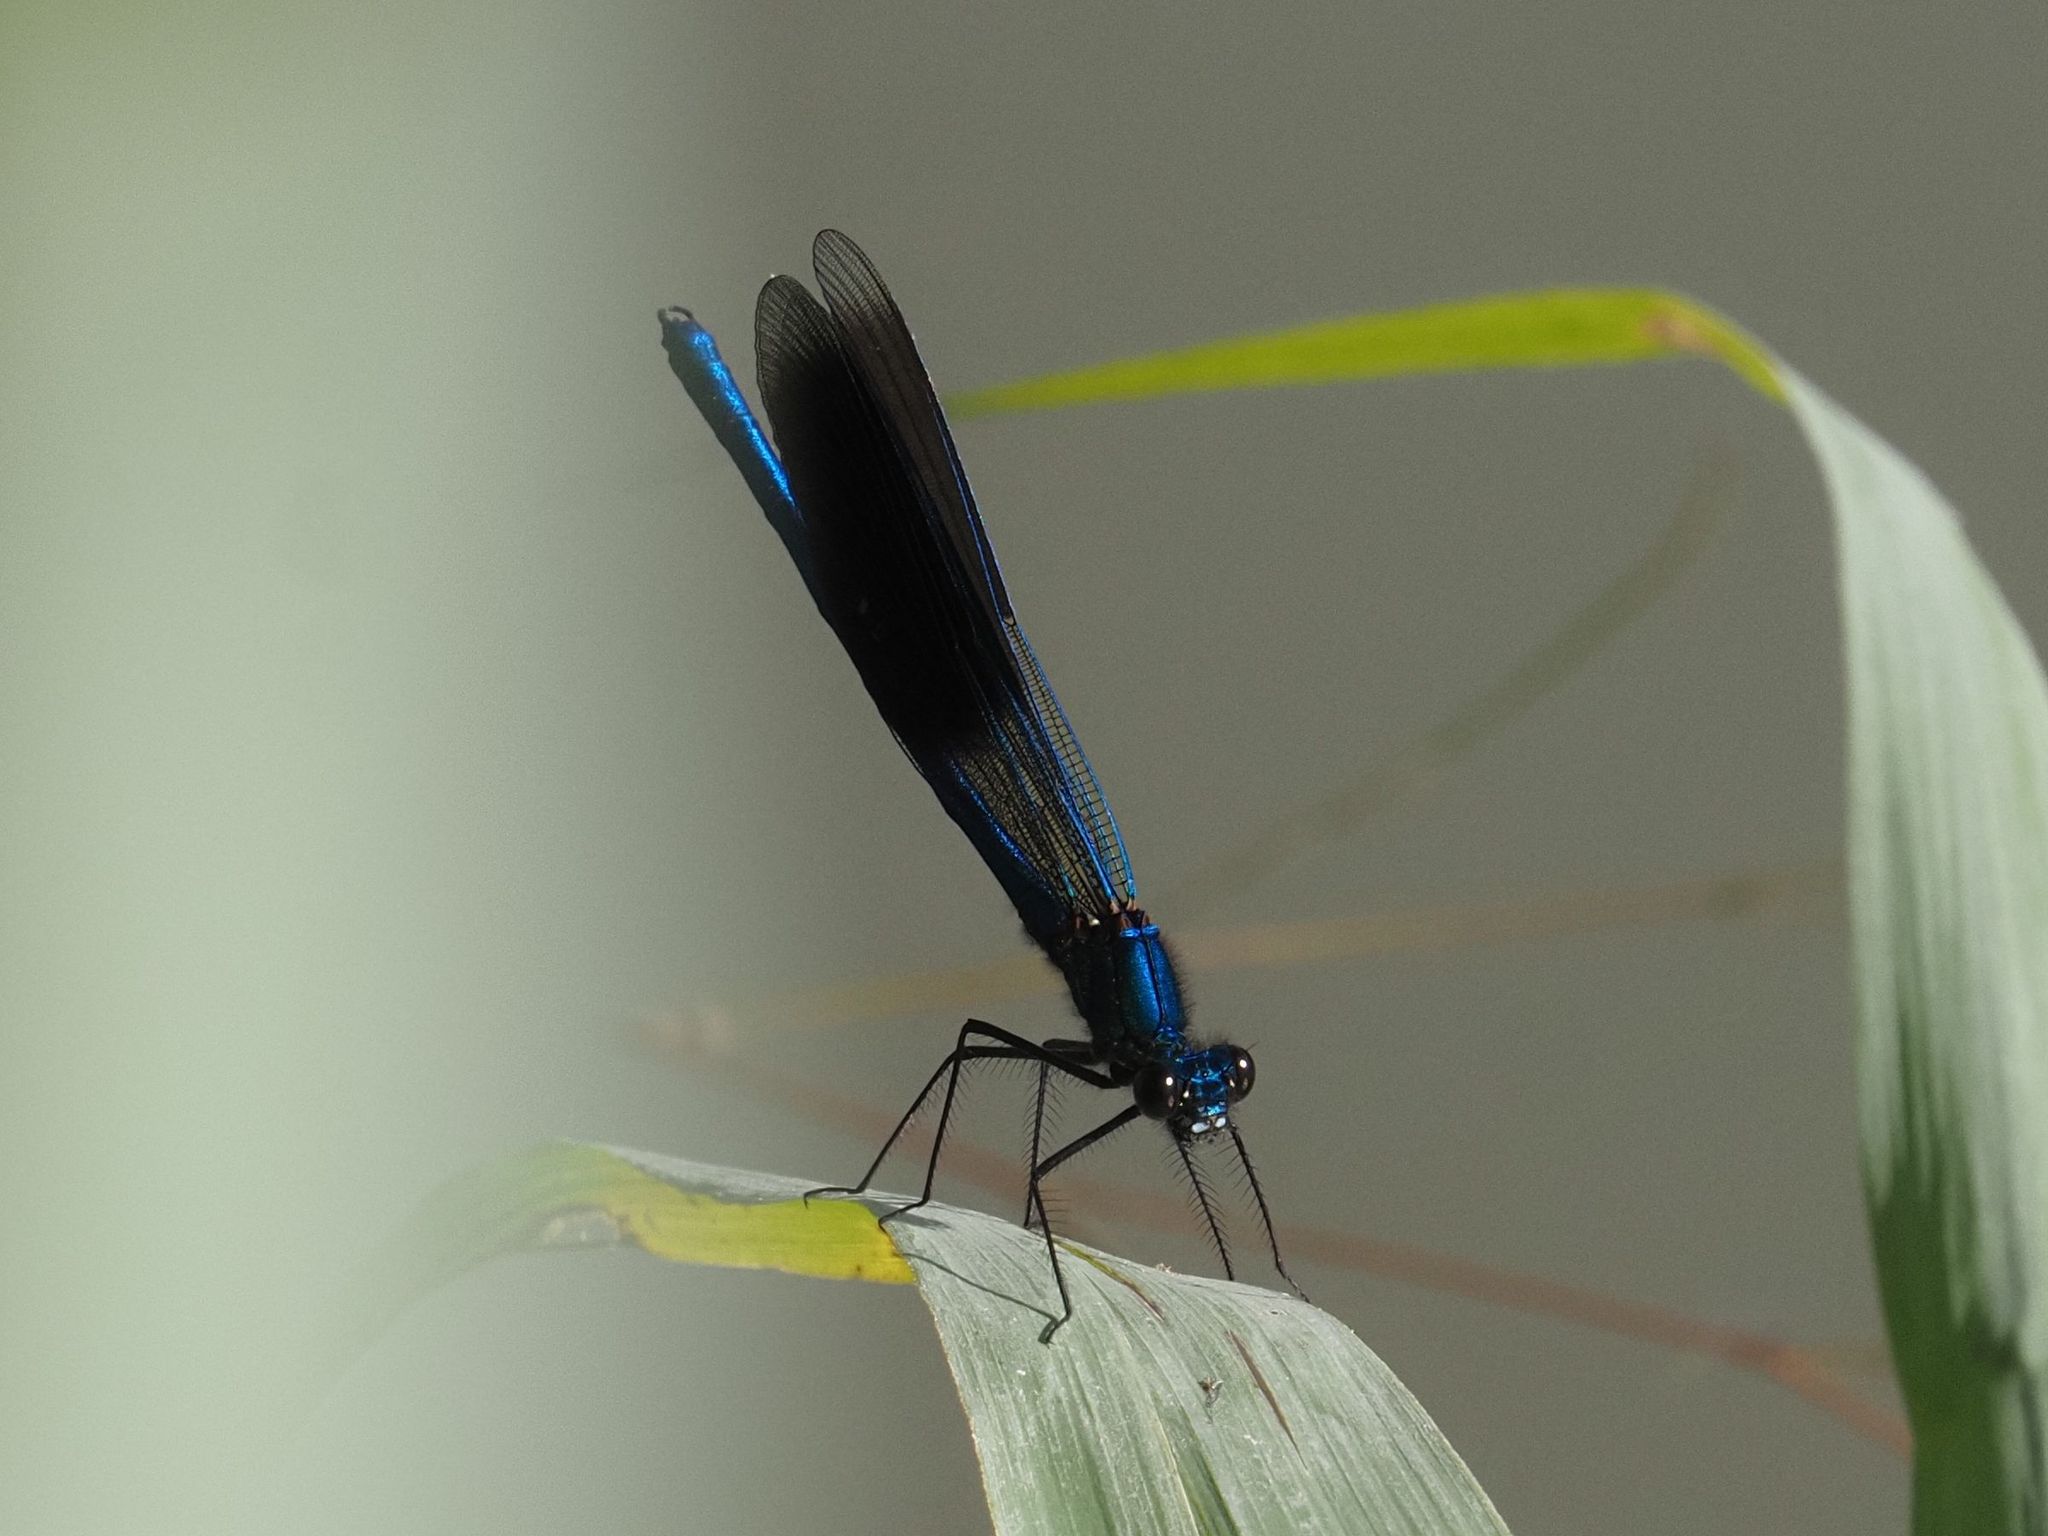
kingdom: Animalia
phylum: Arthropoda
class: Insecta
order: Odonata
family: Calopterygidae
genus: Calopteryx
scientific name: Calopteryx splendens
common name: Banded demoiselle
